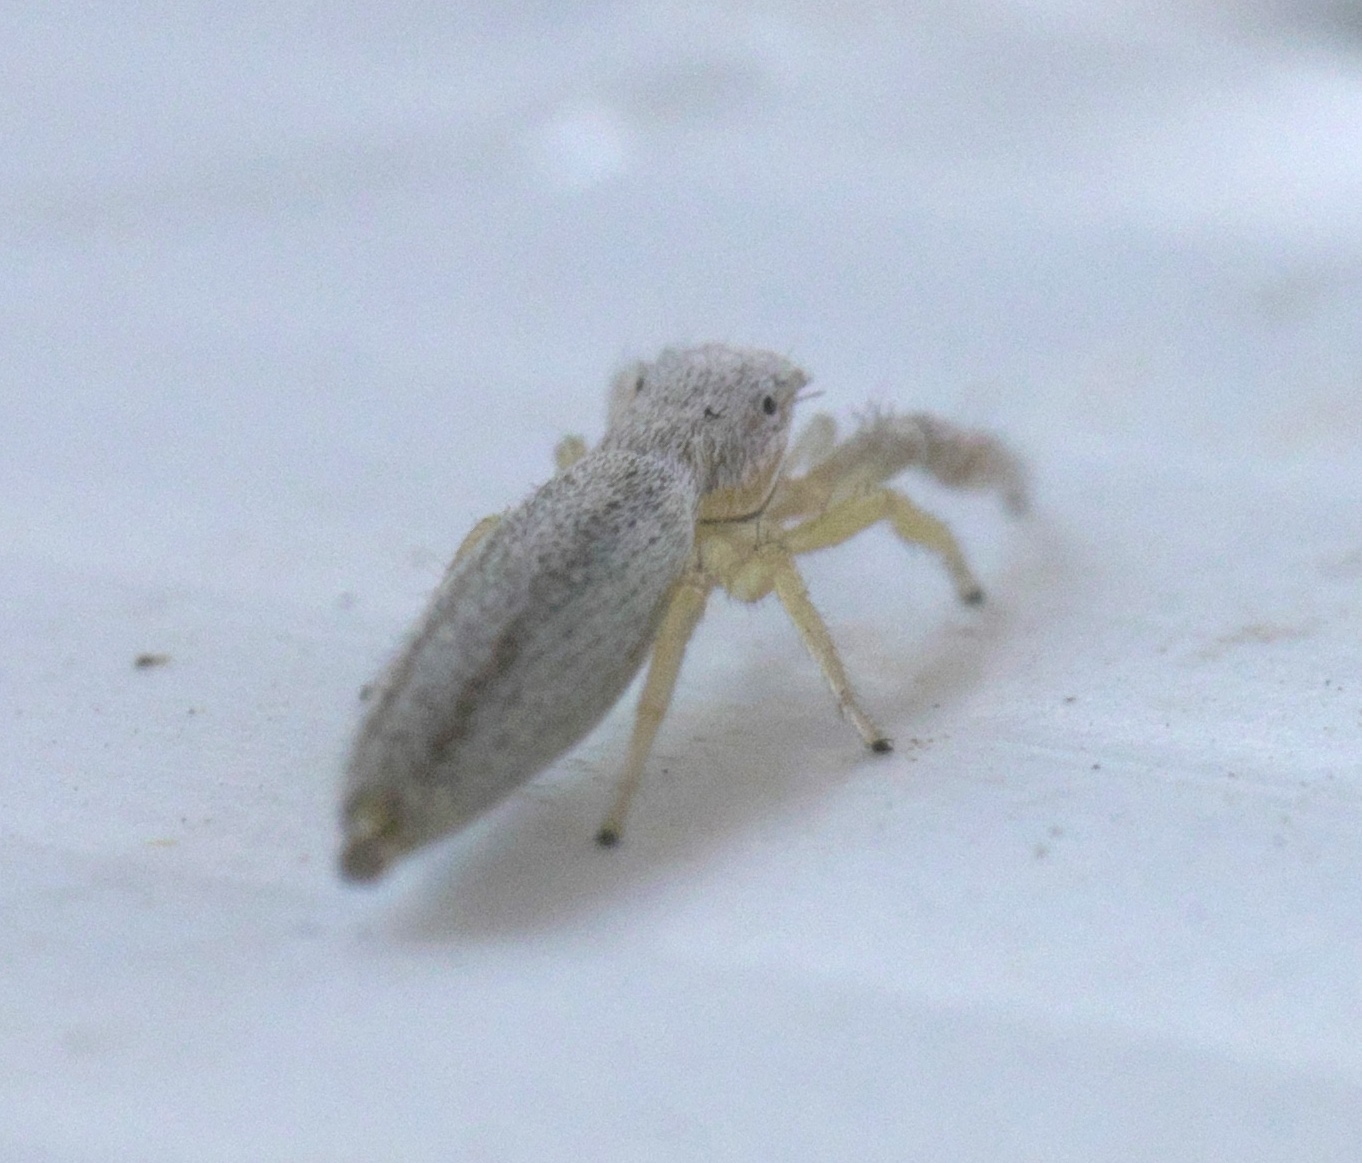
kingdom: Animalia
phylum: Arthropoda
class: Arachnida
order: Araneae
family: Salticidae
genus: Marpissa
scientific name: Marpissa pikei
